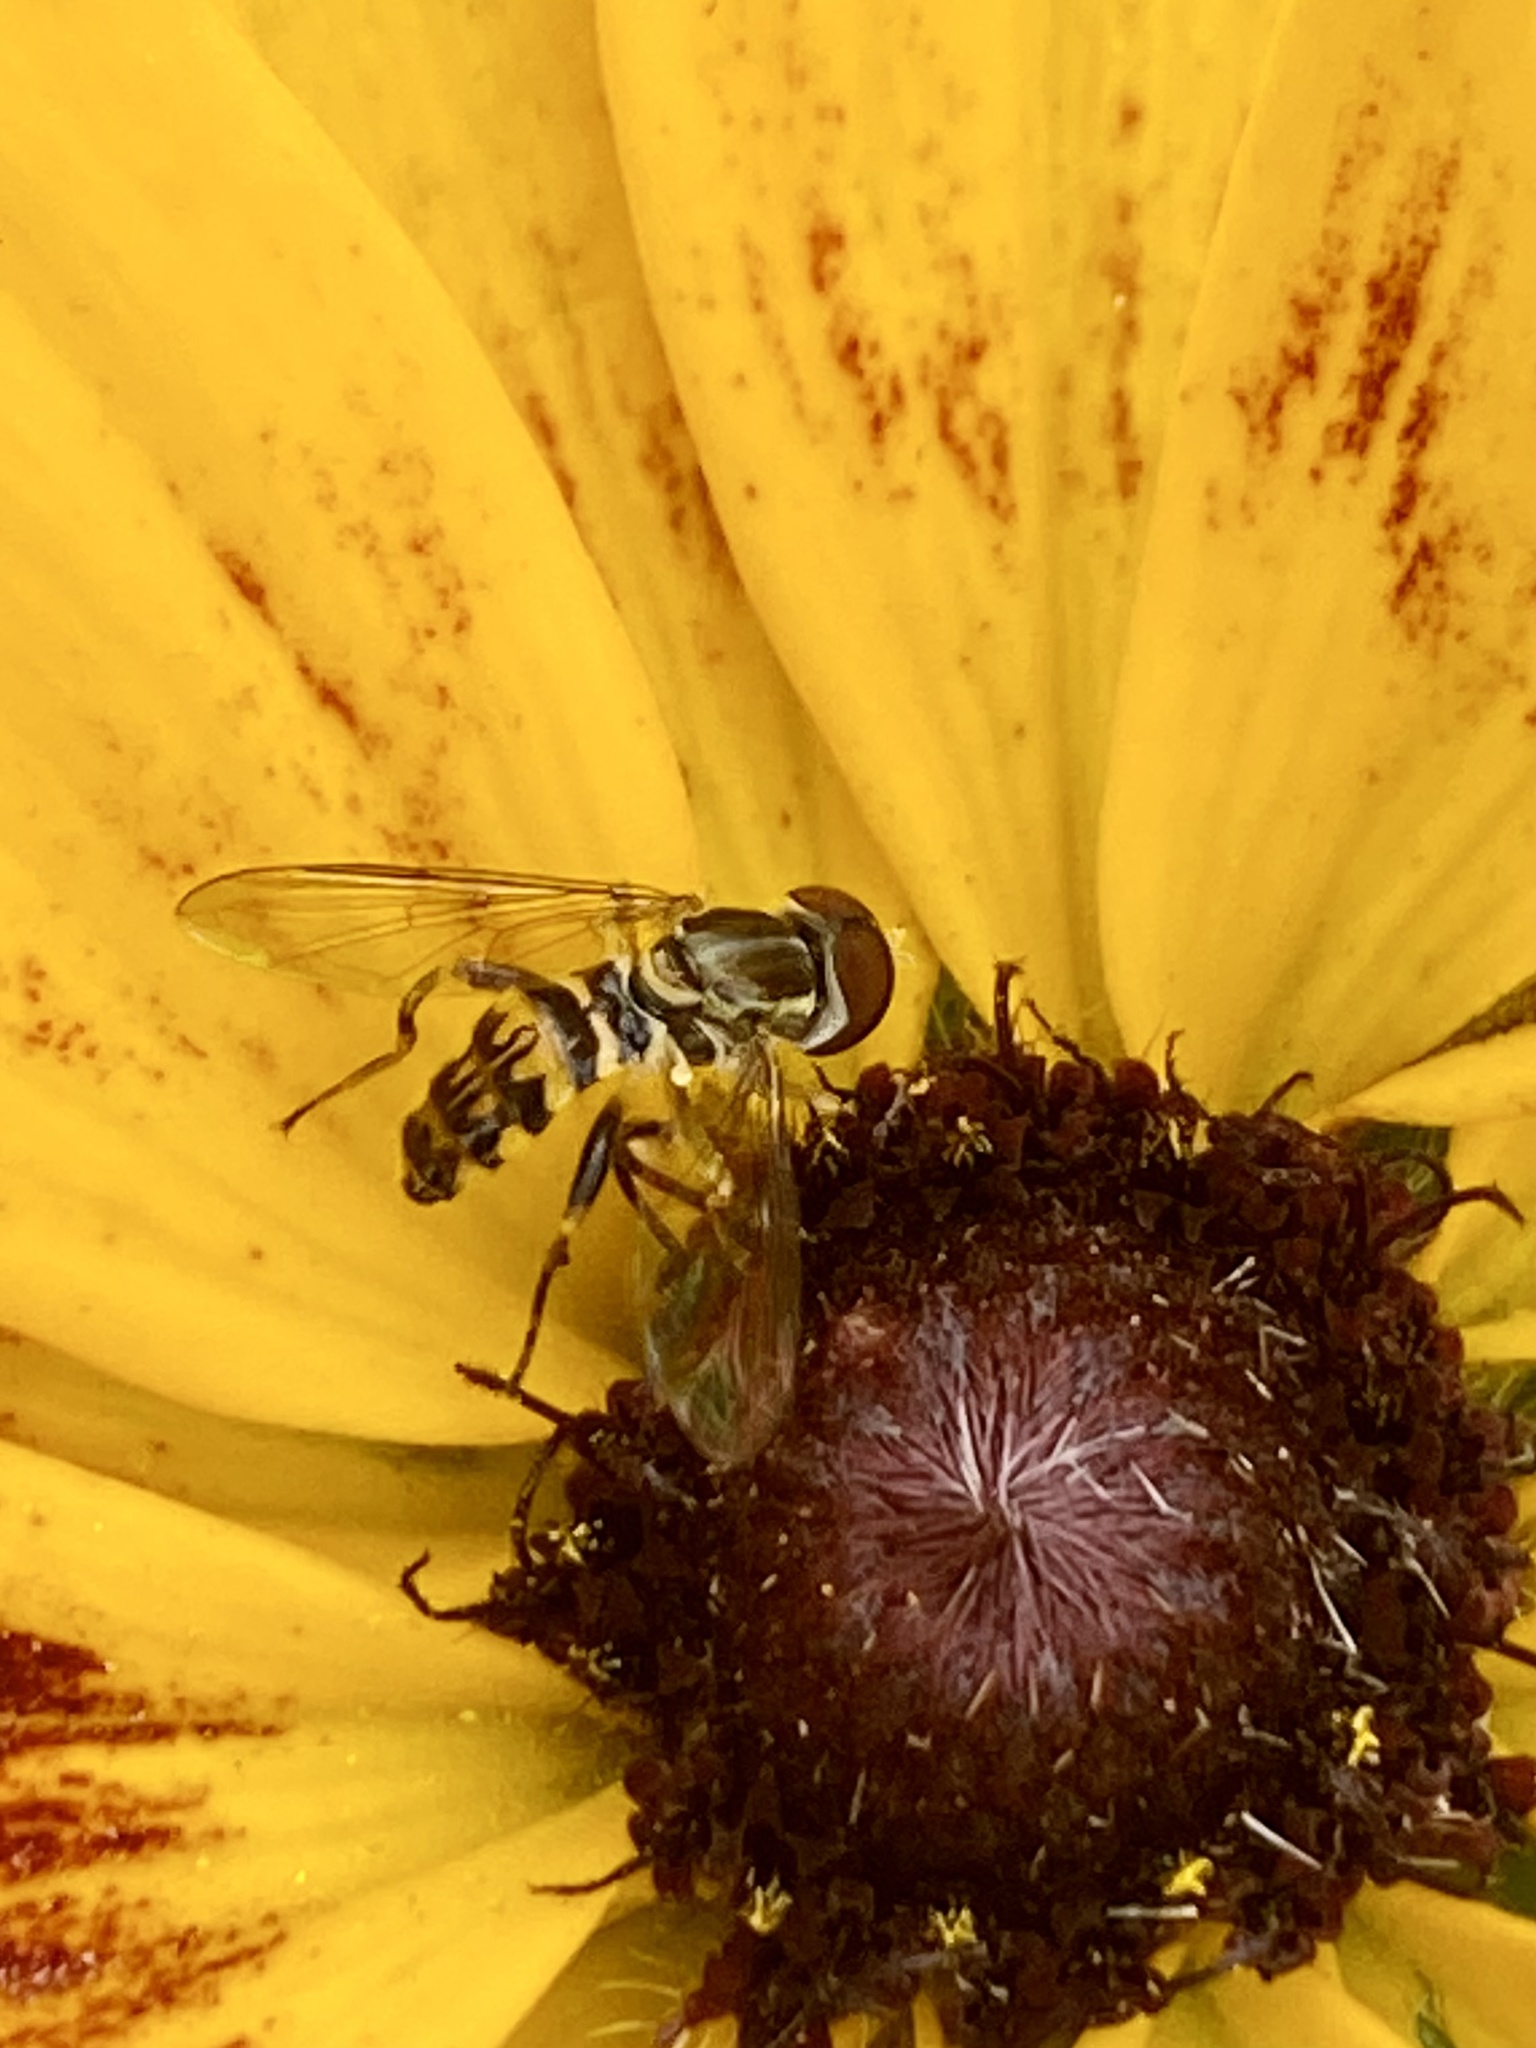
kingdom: Animalia
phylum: Arthropoda
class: Insecta
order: Diptera
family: Syrphidae
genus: Toxomerus
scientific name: Toxomerus geminatus
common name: Eastern calligrapher
